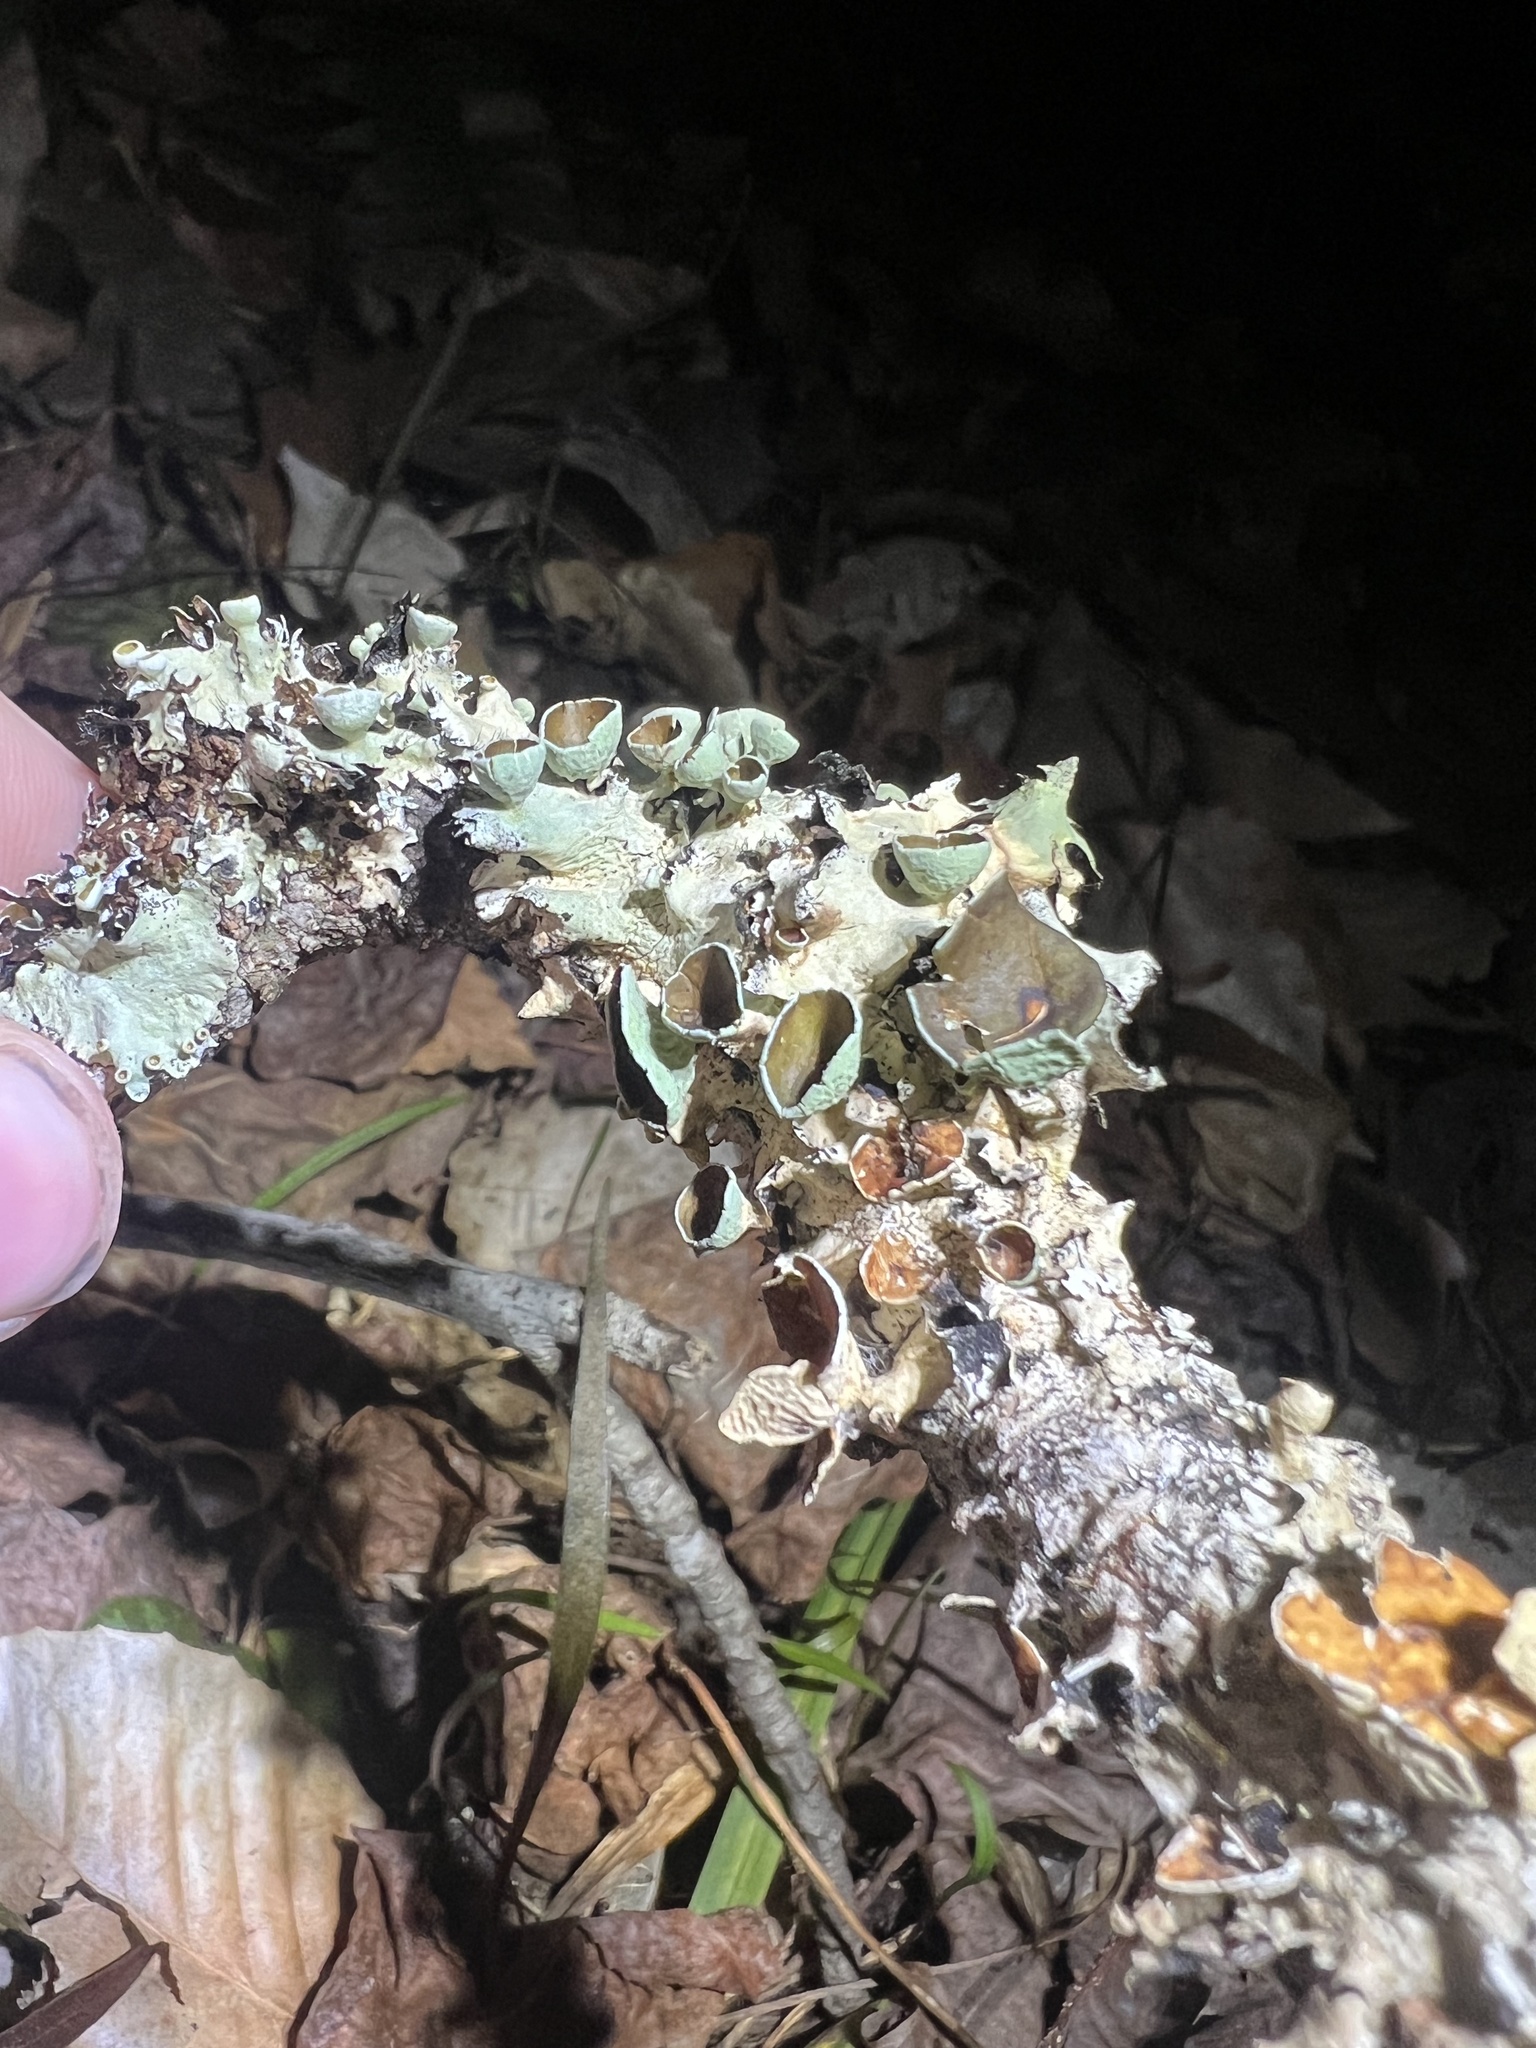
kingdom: Fungi
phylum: Ascomycota
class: Lecanoromycetes
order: Lecanorales
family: Parmeliaceae
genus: Parmotrema
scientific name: Parmotrema submarginale
